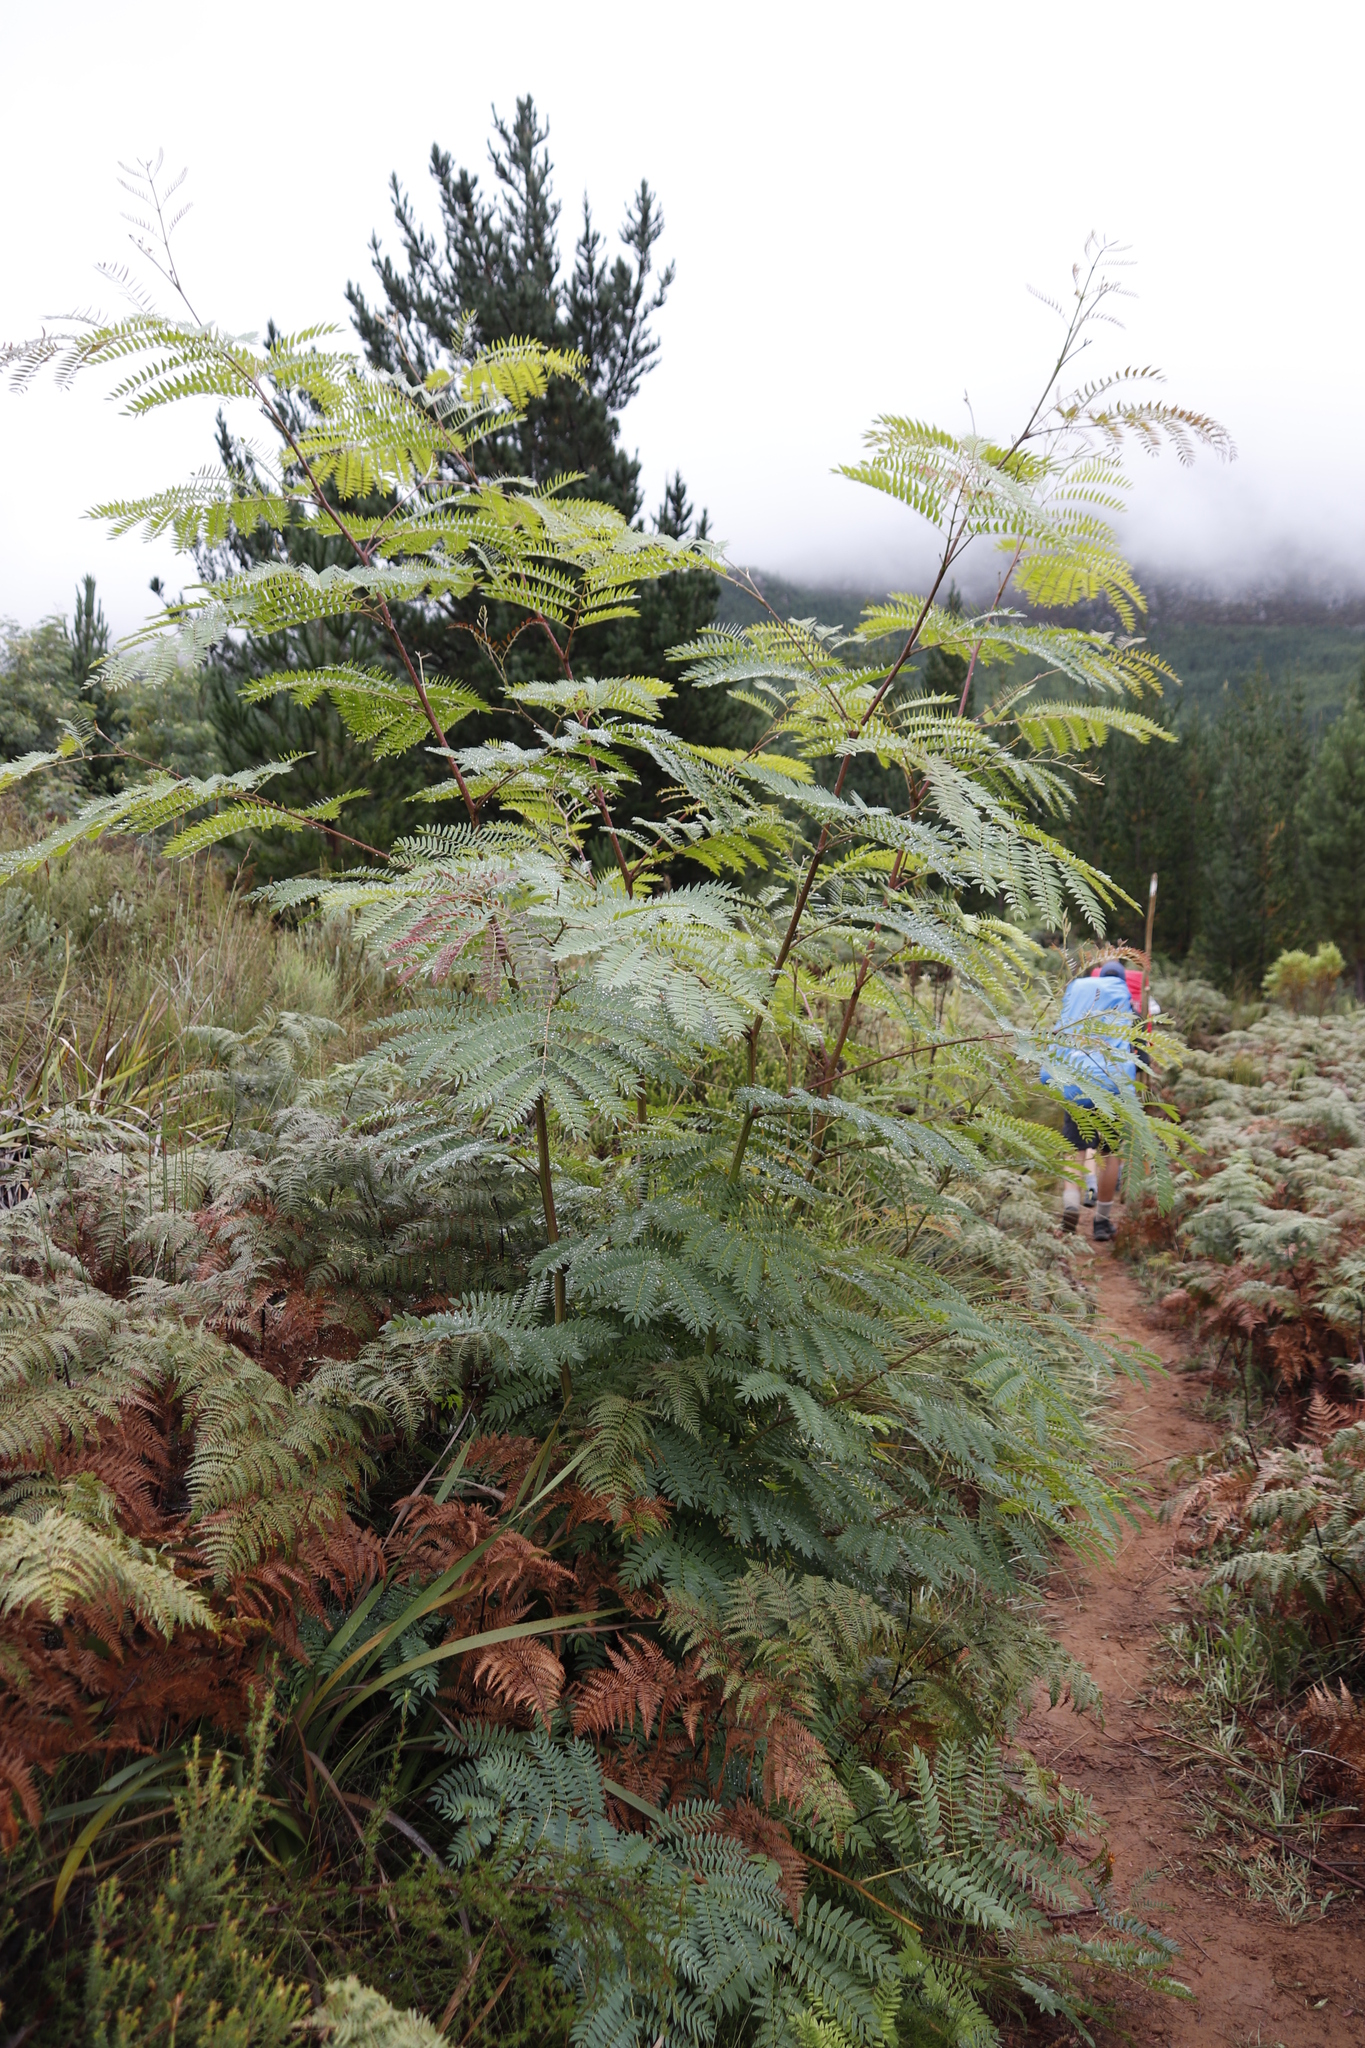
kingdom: Plantae
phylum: Tracheophyta
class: Magnoliopsida
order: Fabales
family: Fabaceae
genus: Acacia
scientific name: Acacia elata
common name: Cedar wattle
